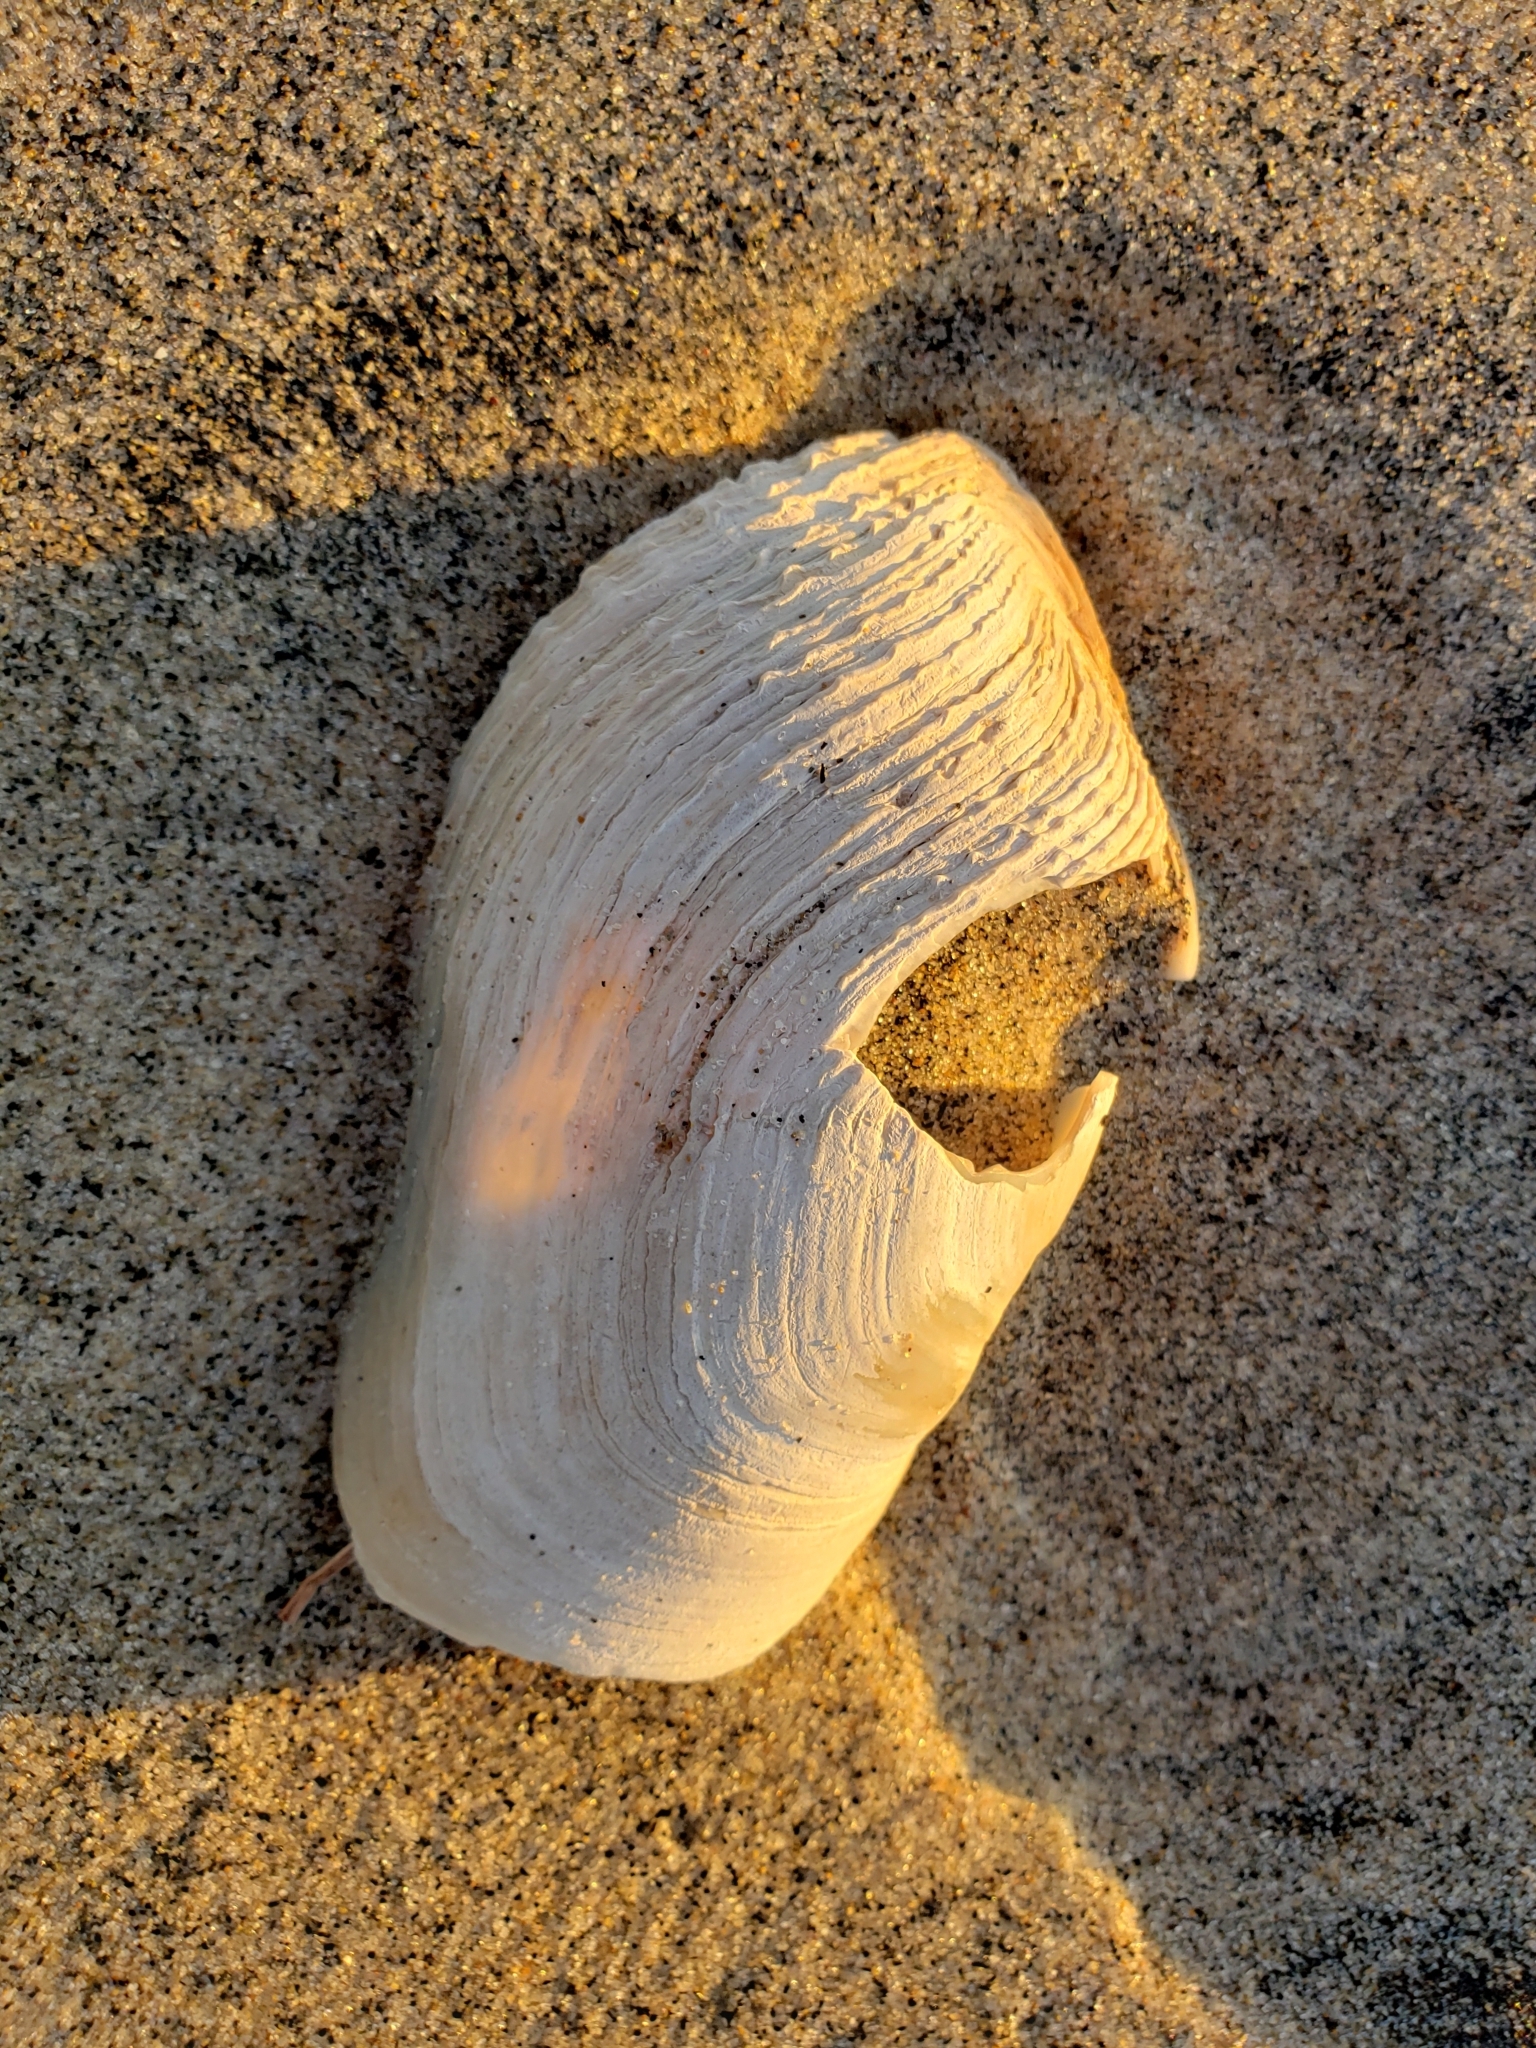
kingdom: Animalia
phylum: Mollusca
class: Bivalvia
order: Myida
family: Pholadidae
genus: Zirfaea
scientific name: Zirfaea pilsbryi
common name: Rough piddock
